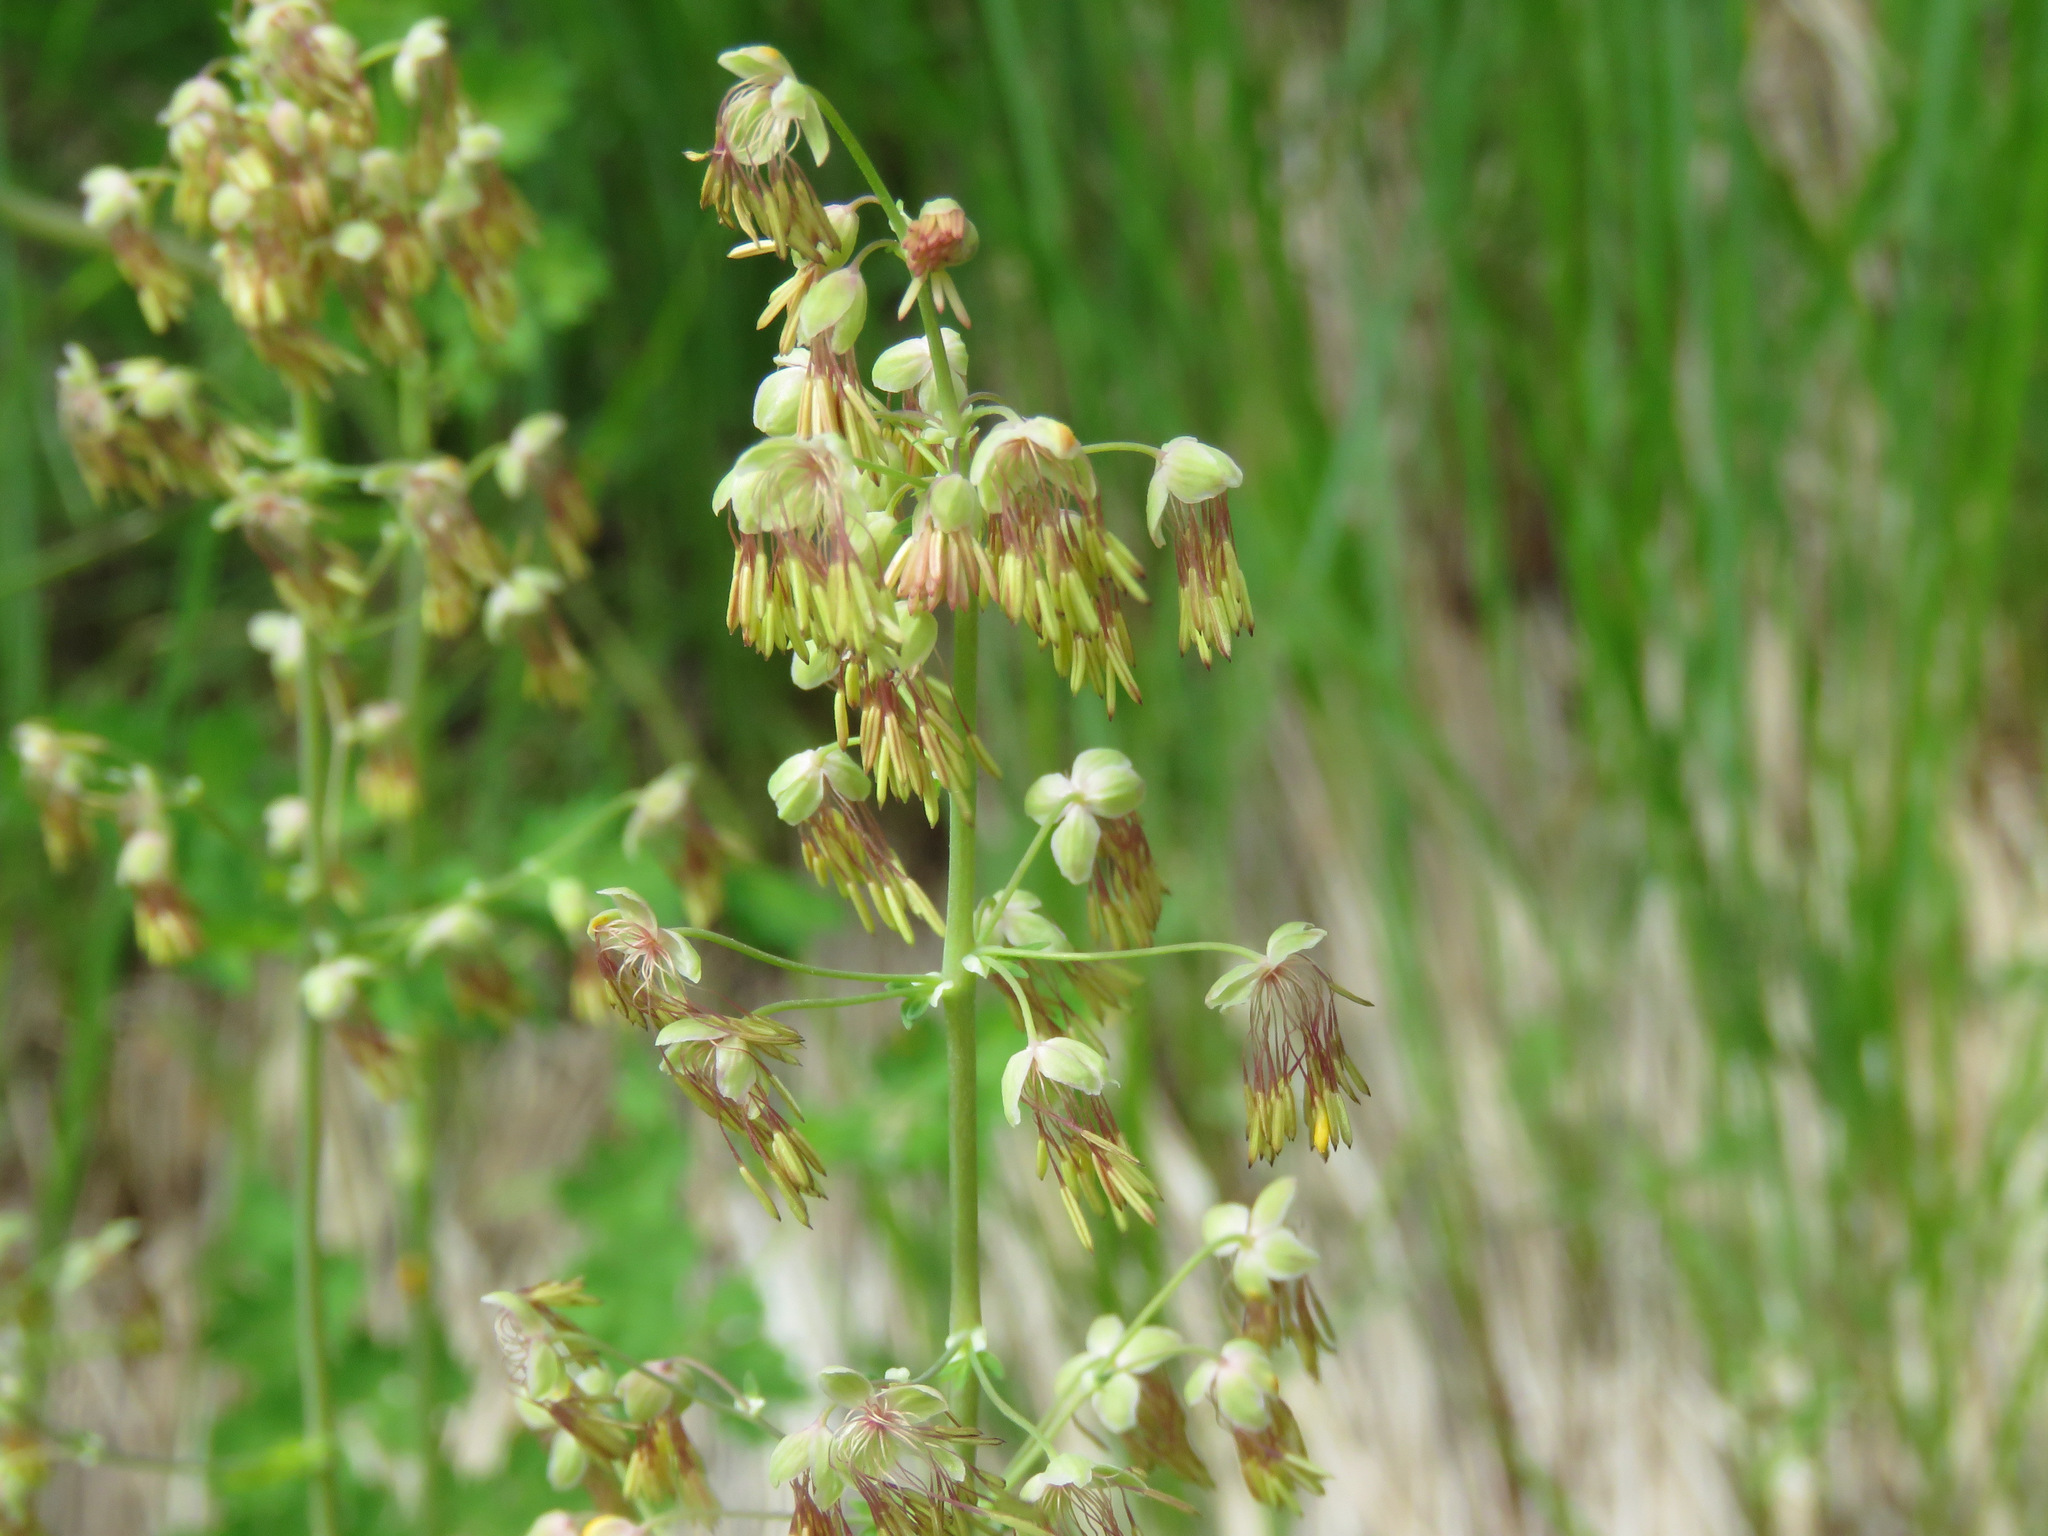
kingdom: Plantae
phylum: Tracheophyta
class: Magnoliopsida
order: Ranunculales
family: Ranunculaceae
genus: Thalictrum
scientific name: Thalictrum occidentale
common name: Western meadow-rue
